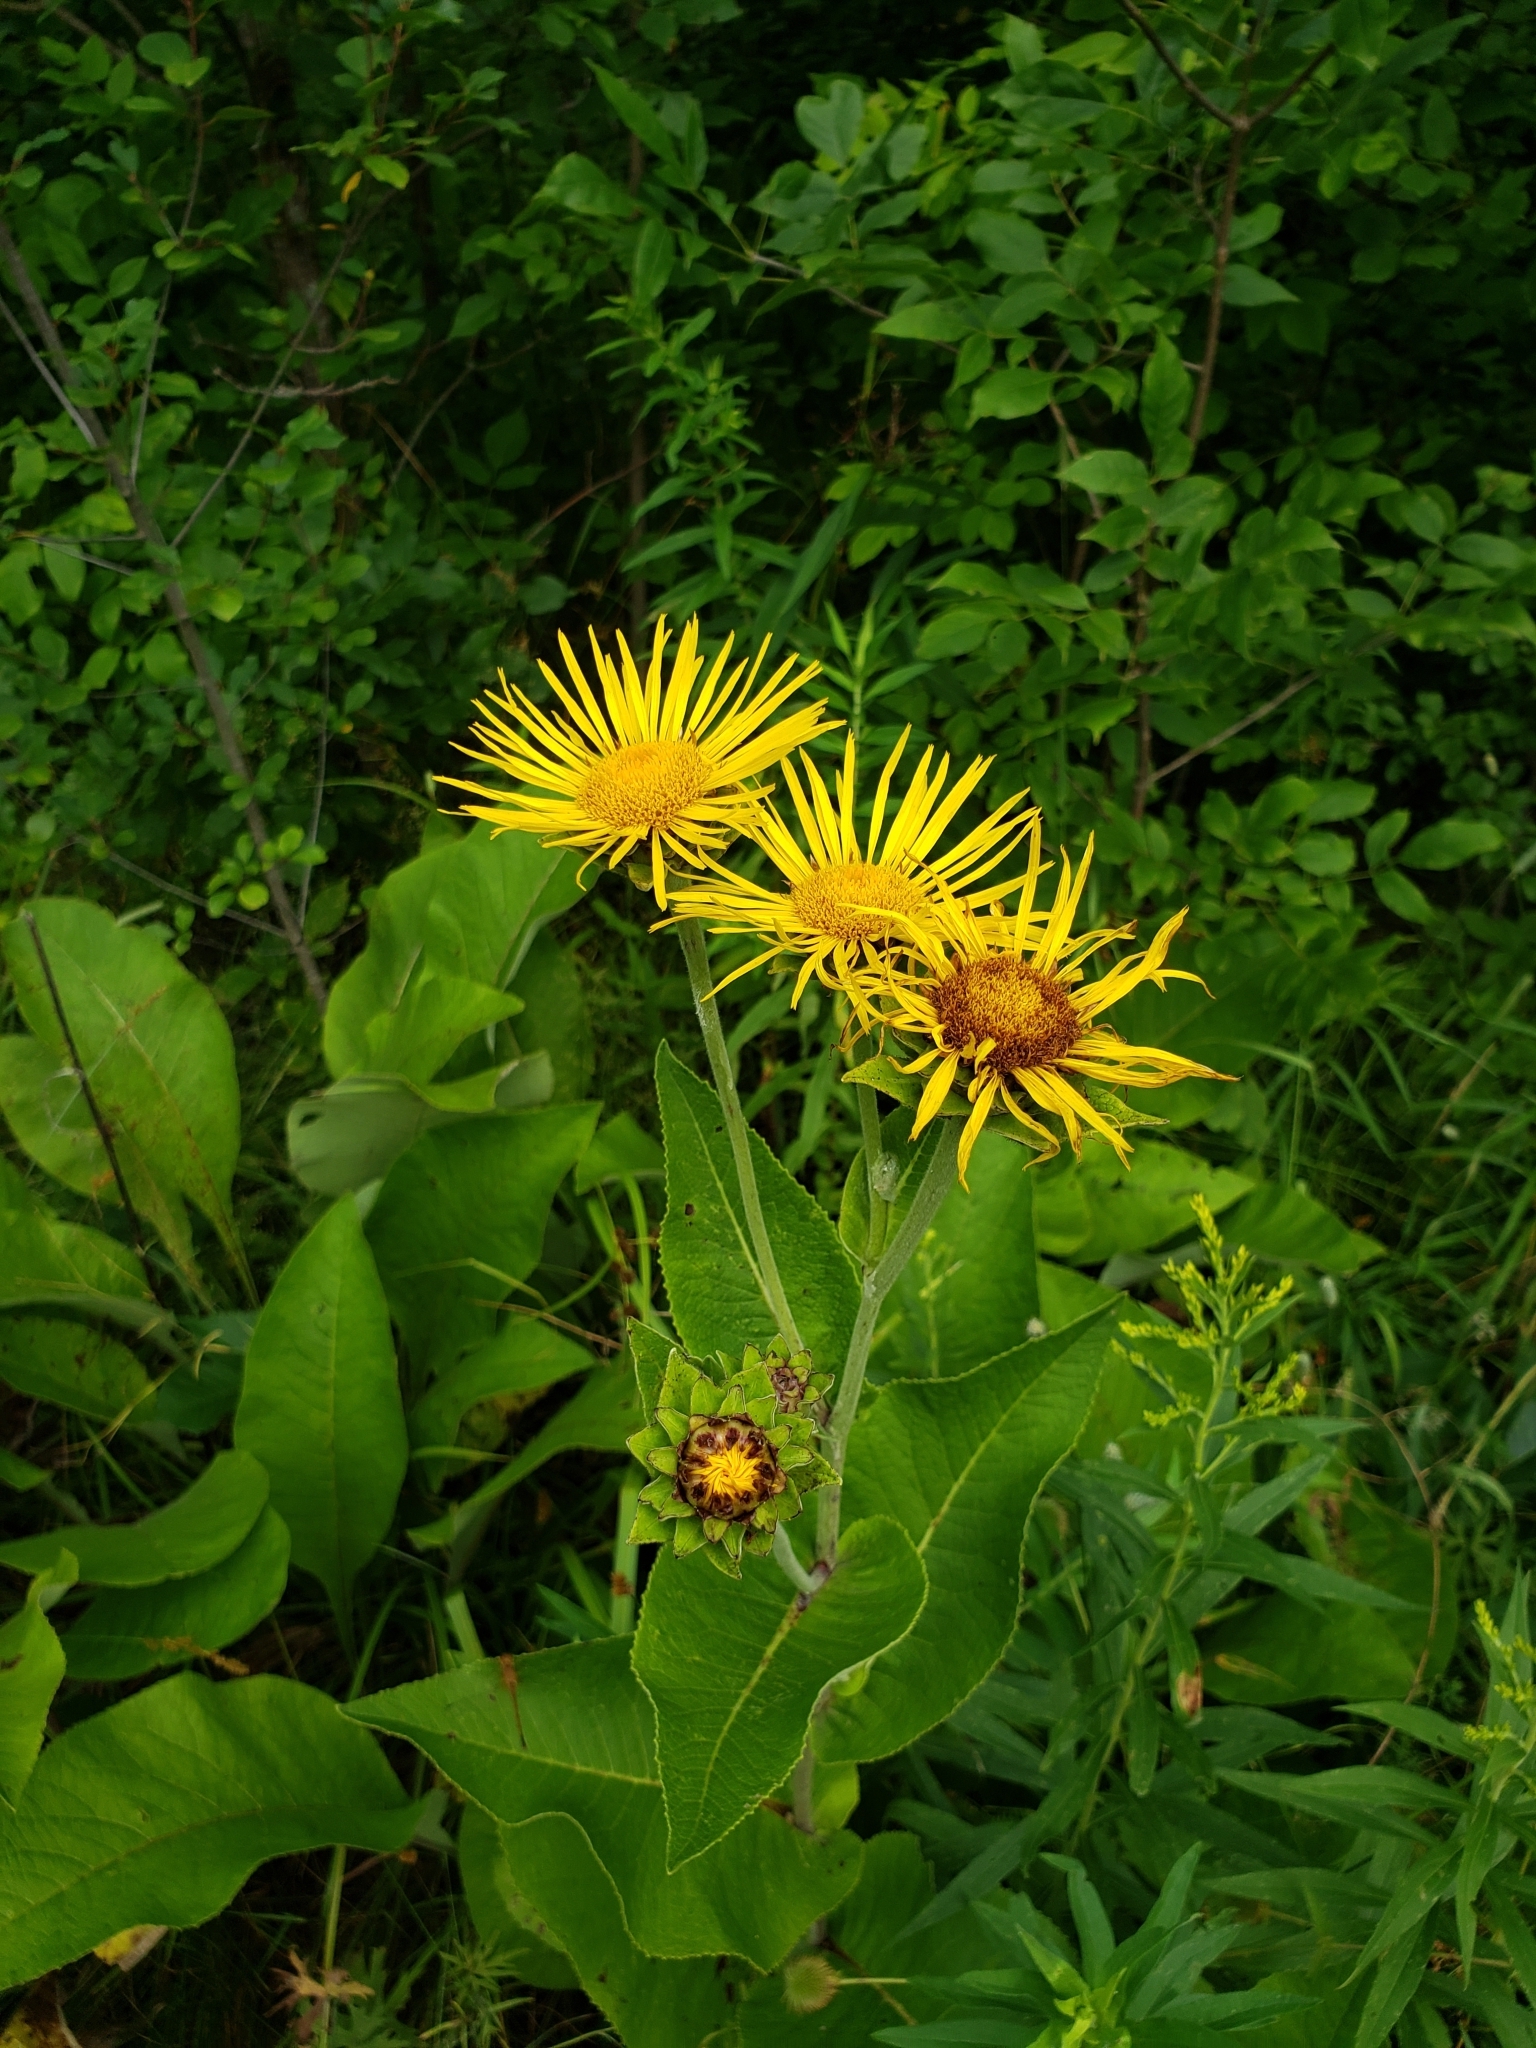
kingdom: Plantae
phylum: Tracheophyta
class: Magnoliopsida
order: Asterales
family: Asteraceae
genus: Inula
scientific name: Inula helenium
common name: Elecampane
